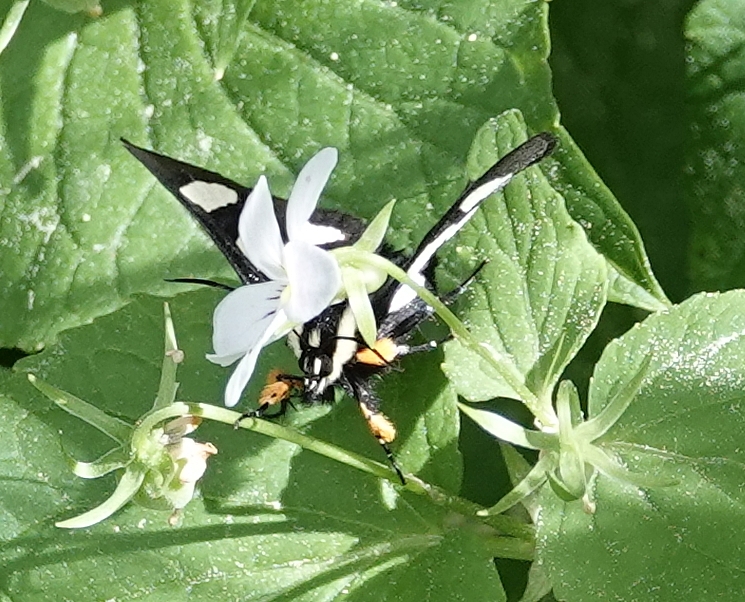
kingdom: Animalia
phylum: Arthropoda
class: Insecta
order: Lepidoptera
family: Noctuidae
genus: Alypia
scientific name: Alypia octomaculata
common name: Eight-spotted forester
